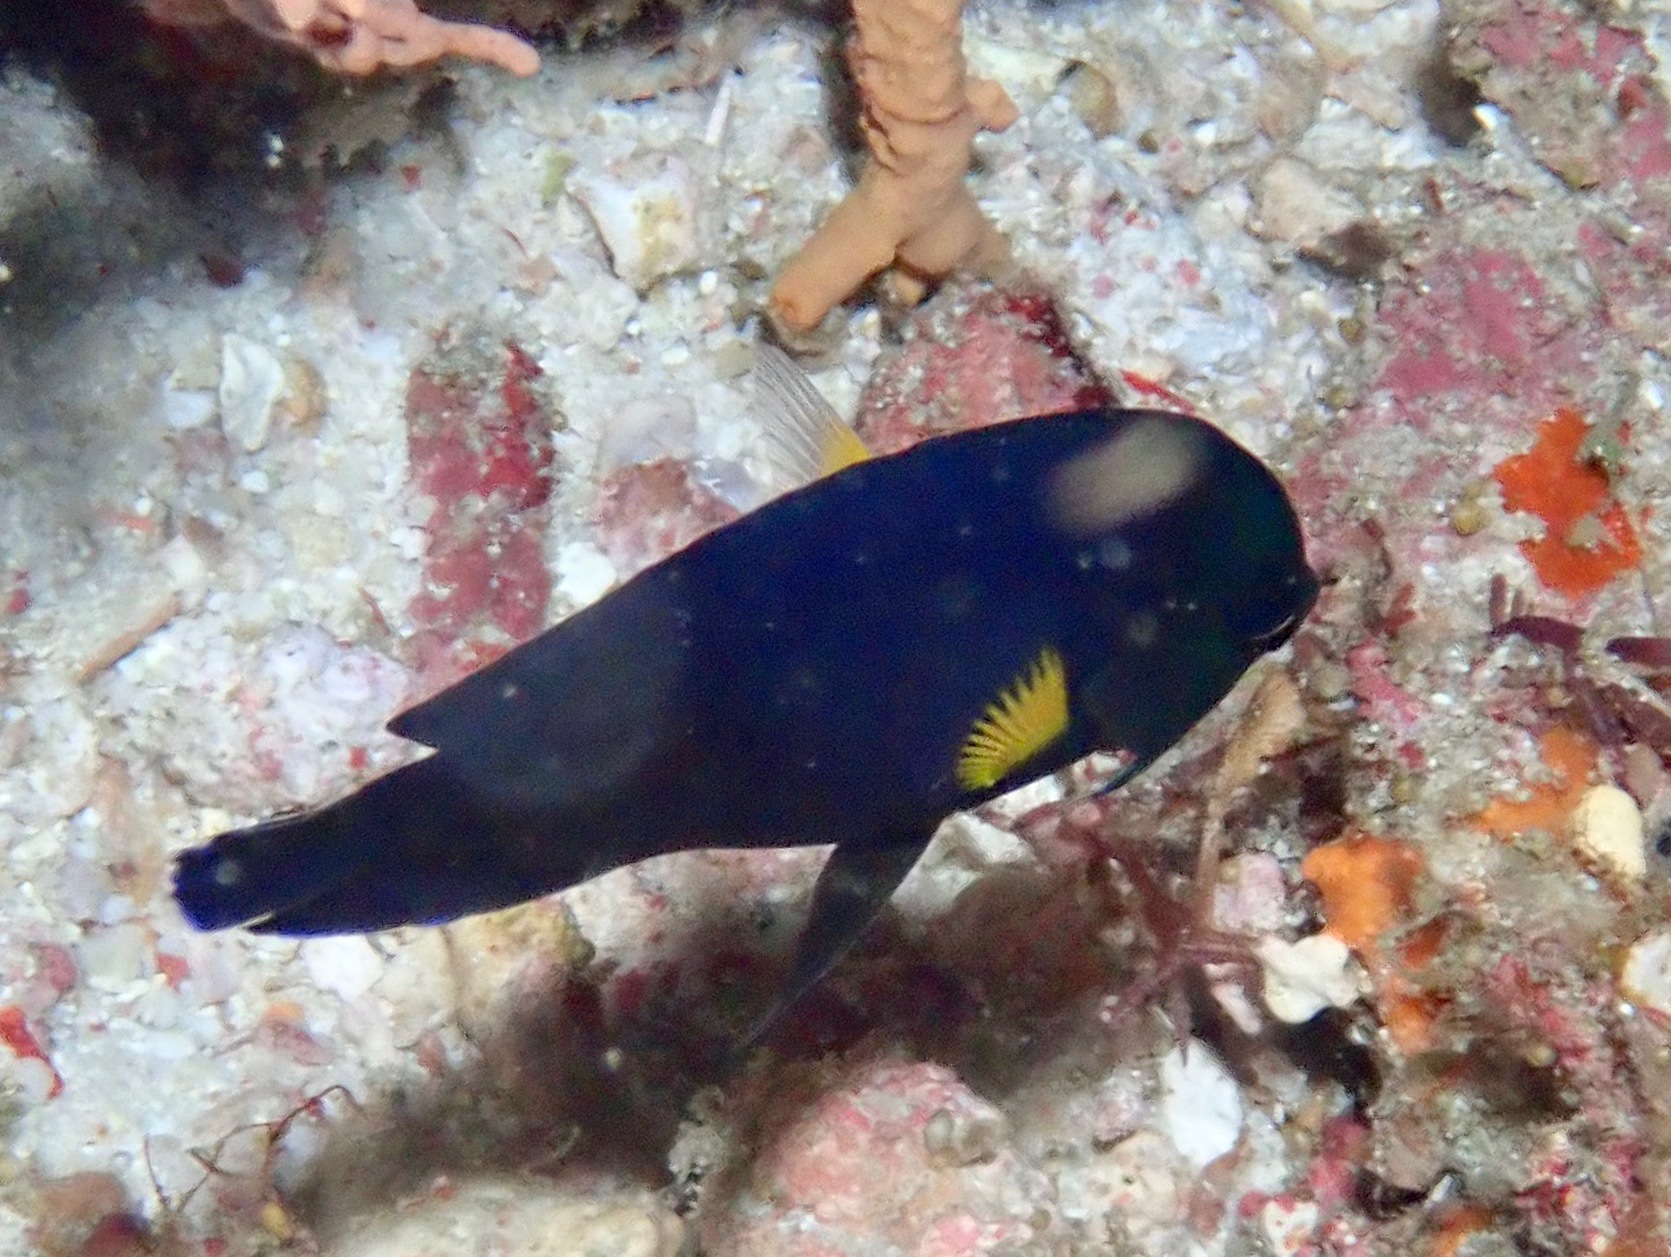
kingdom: Animalia
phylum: Chordata
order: Perciformes
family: Pomacanthidae
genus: Centropyge
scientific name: Centropyge flavipectoralis
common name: Yellowfin angelfish
